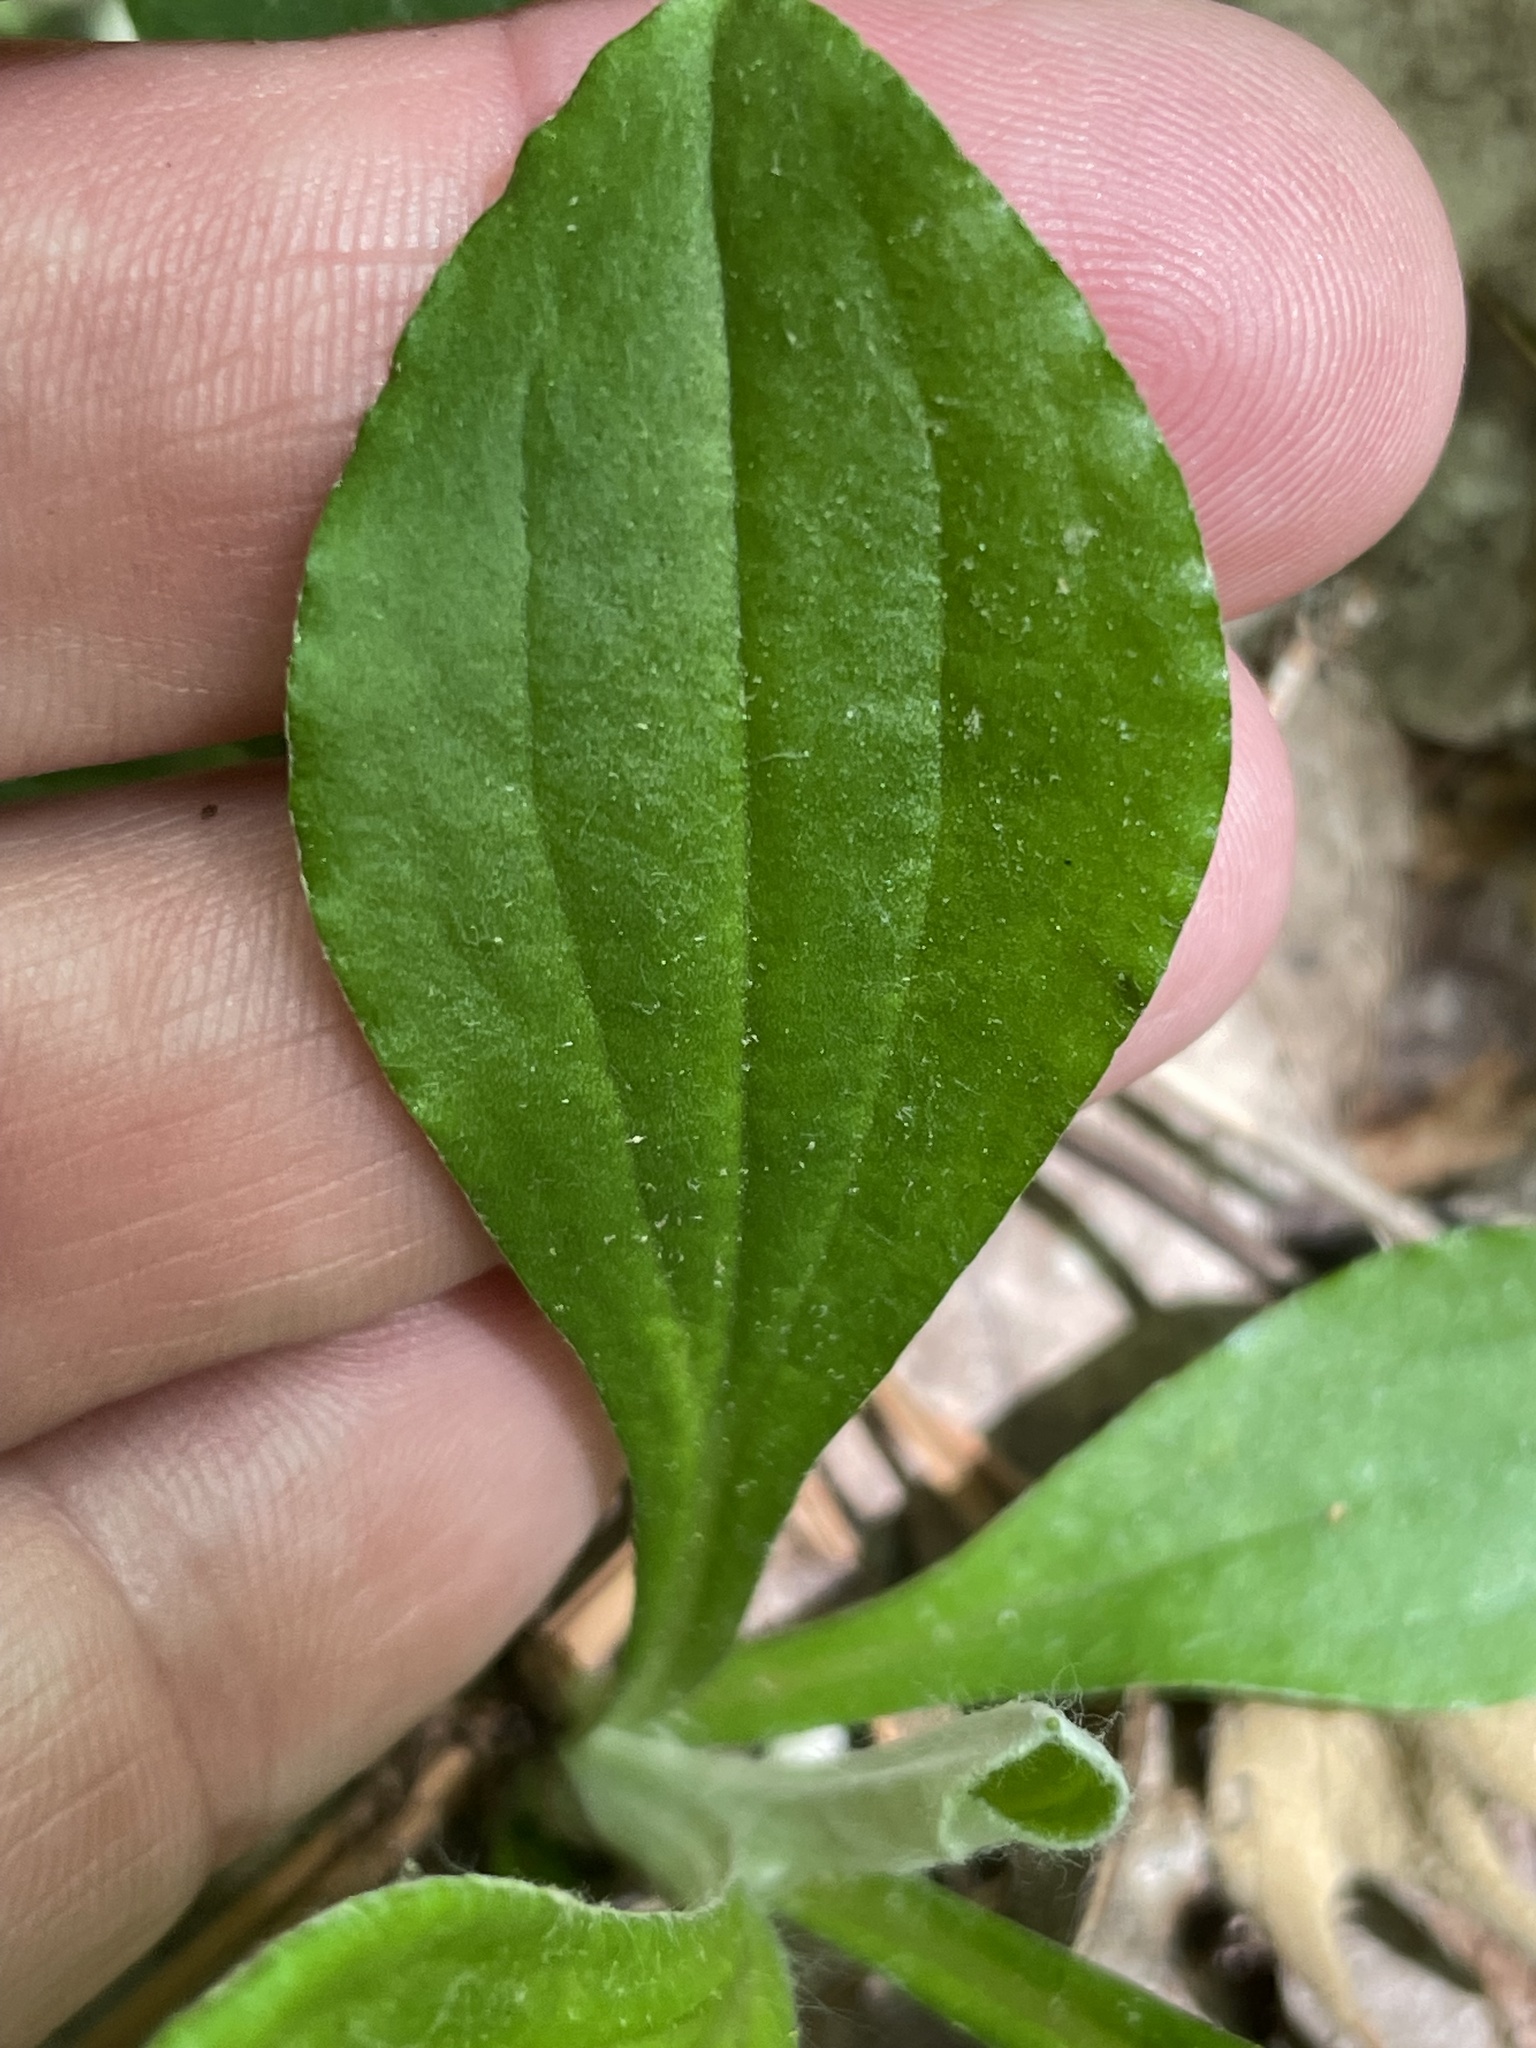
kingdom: Plantae
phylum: Tracheophyta
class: Magnoliopsida
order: Asterales
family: Asteraceae
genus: Antennaria
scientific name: Antennaria parlinii
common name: Parlin's pussytoes
